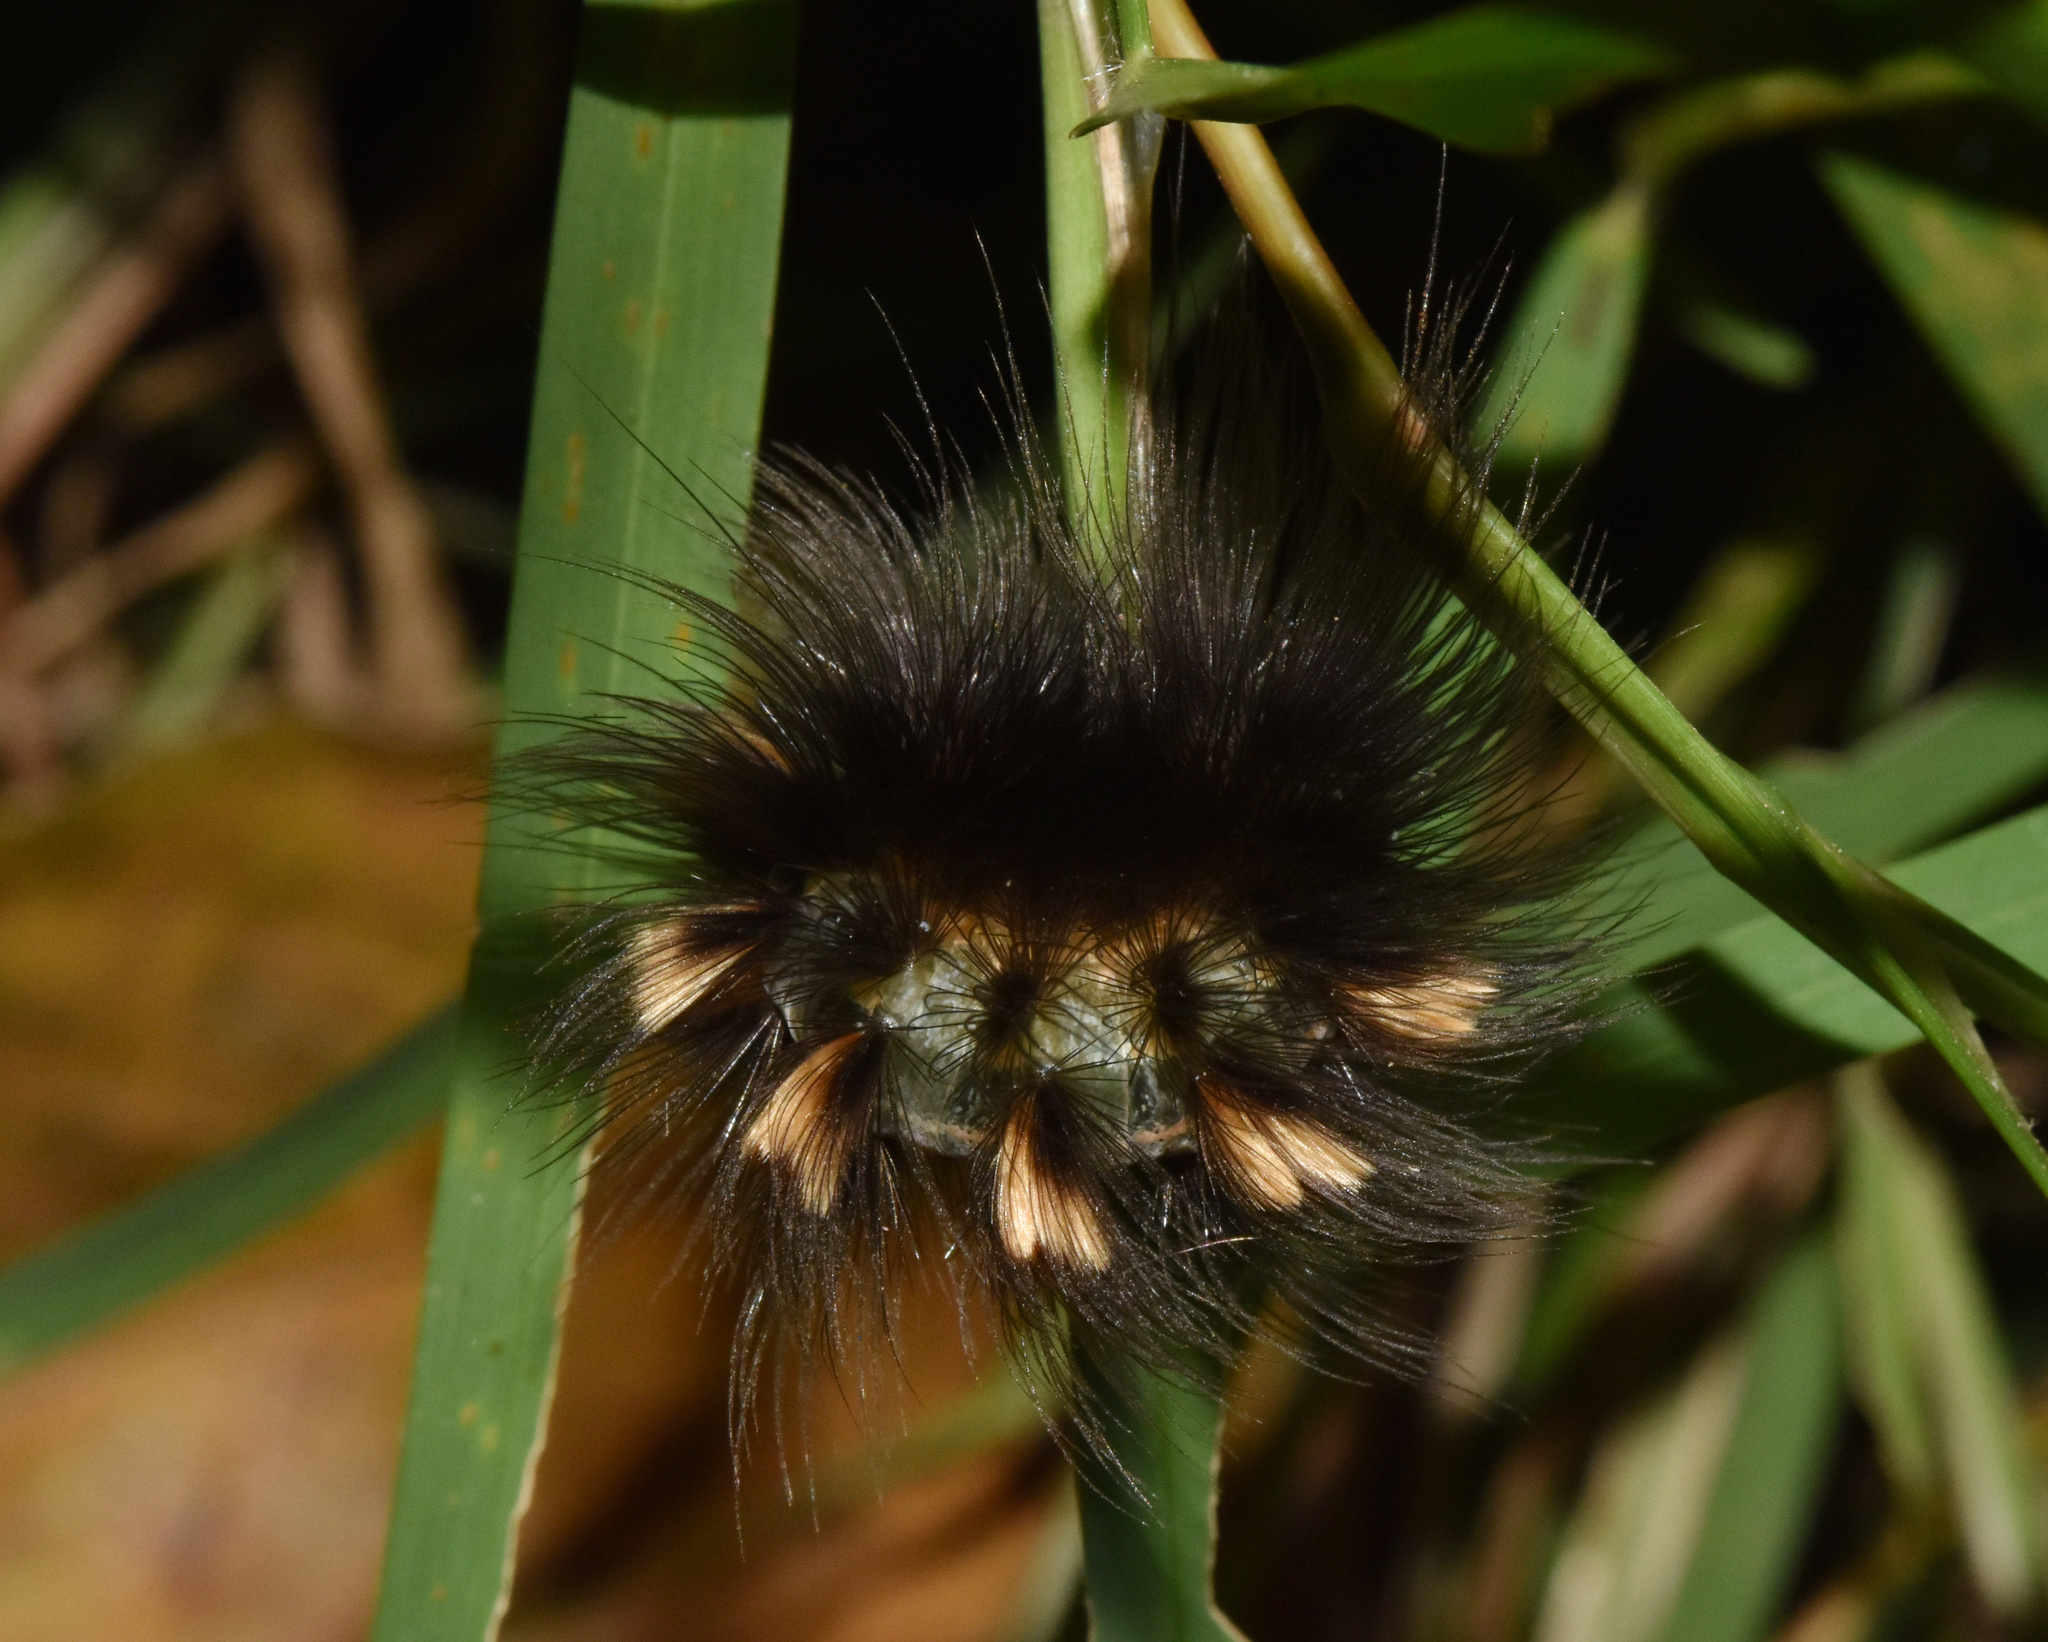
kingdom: Animalia
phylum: Arthropoda
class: Insecta
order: Lepidoptera
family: Erebidae
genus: Aroa
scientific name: Aroa discalis
